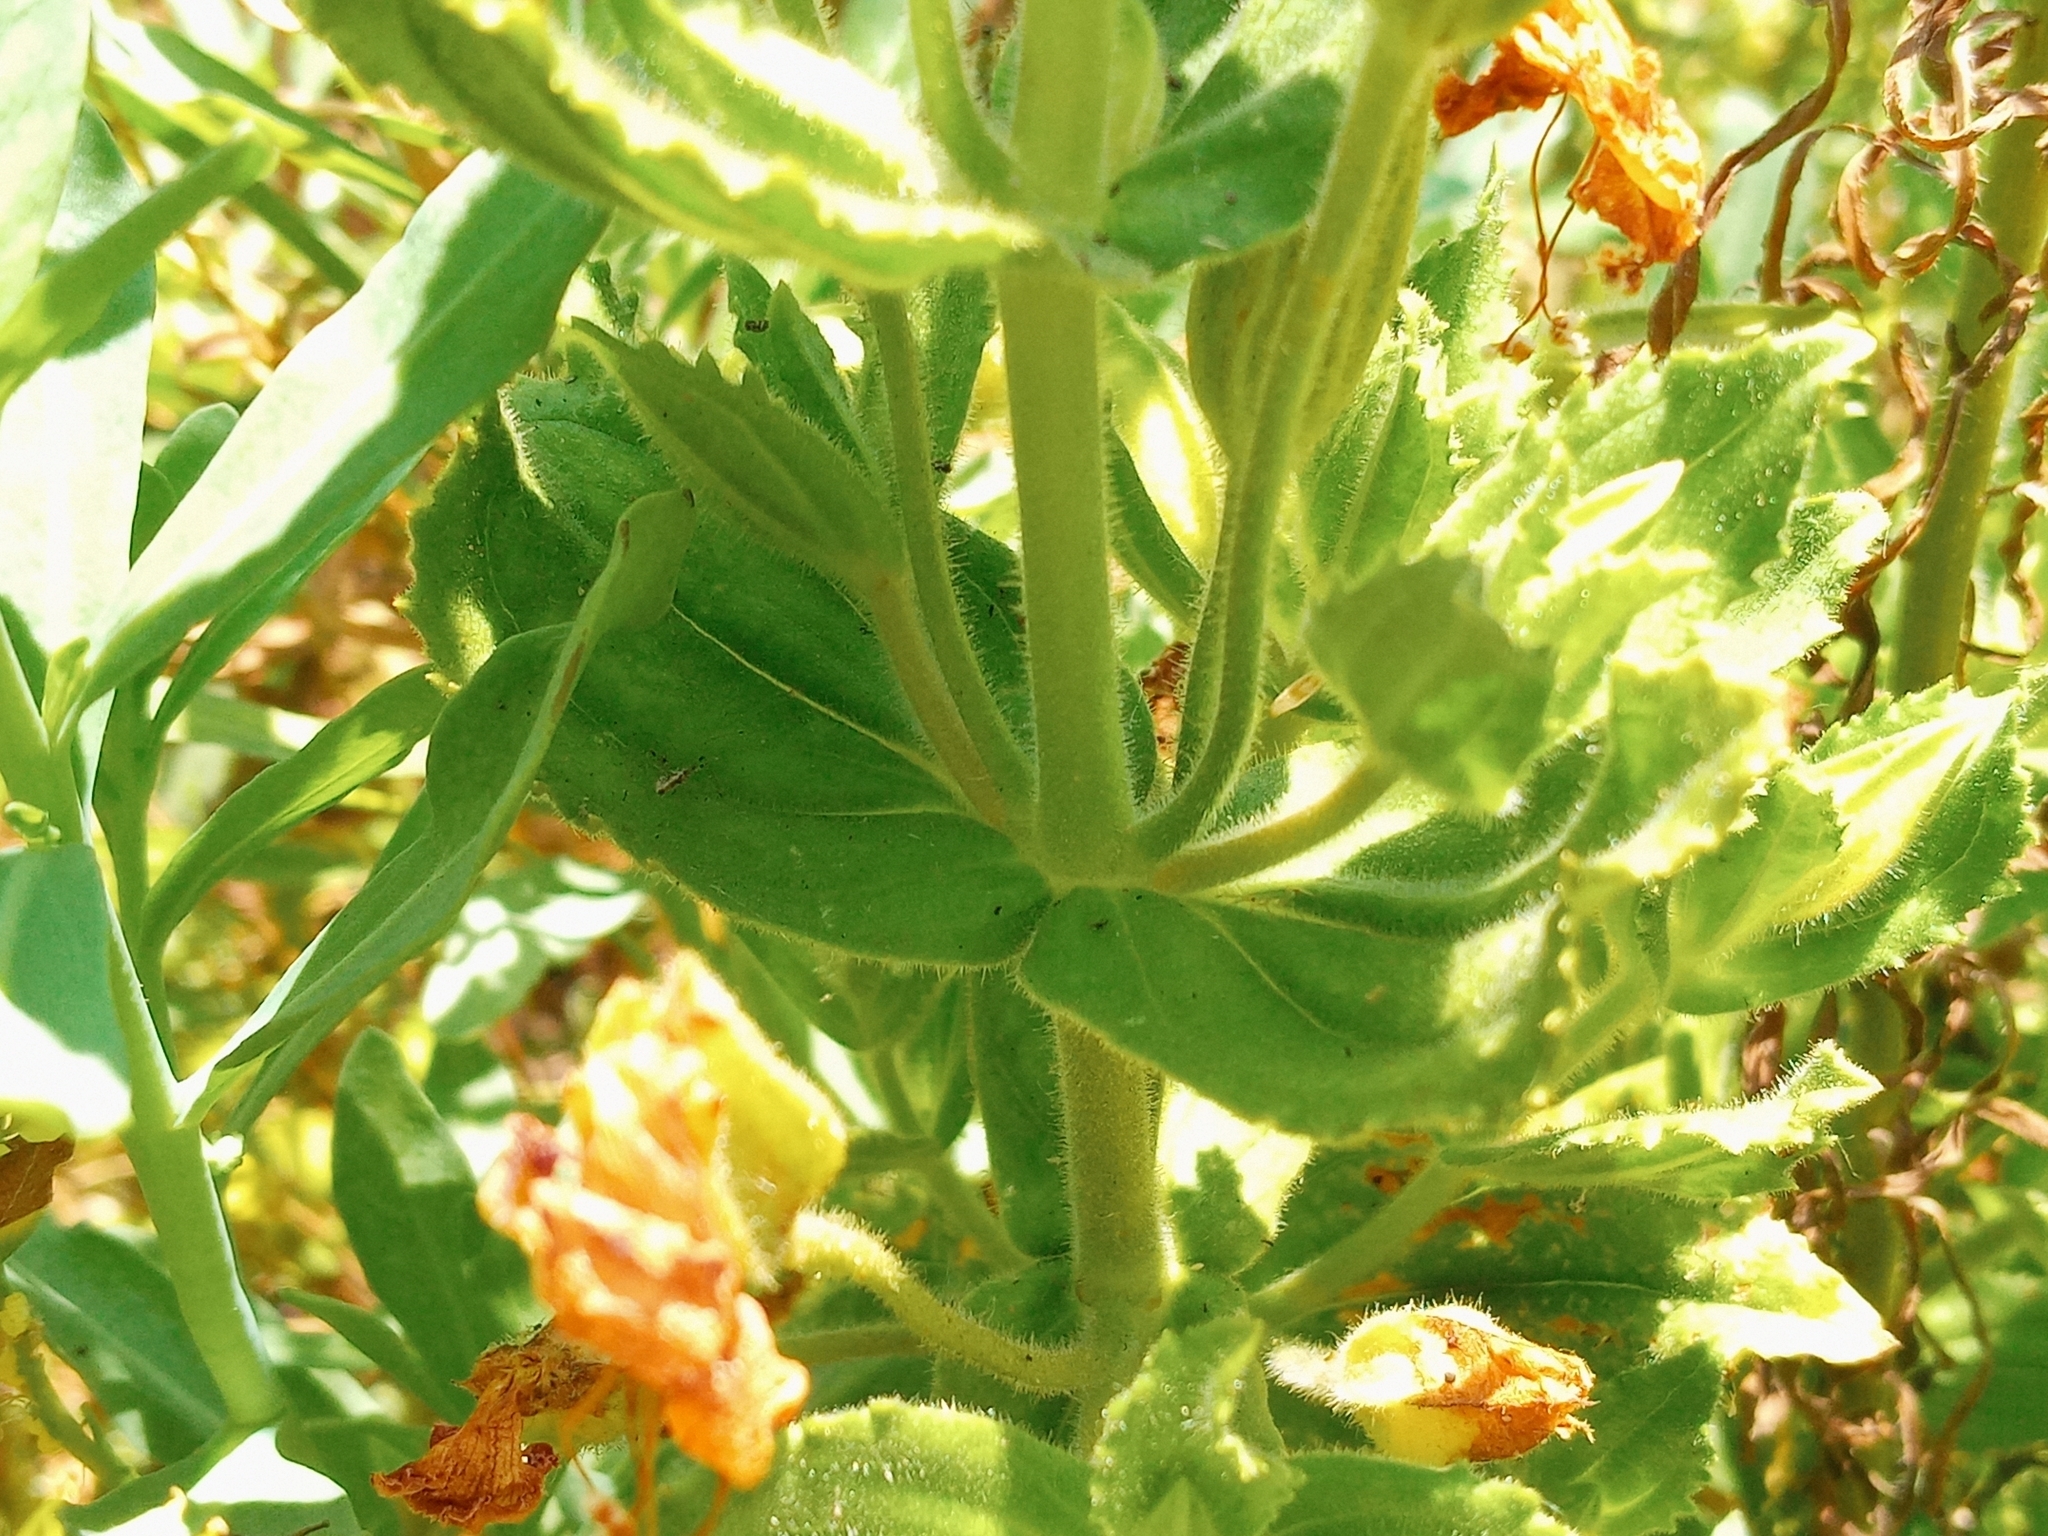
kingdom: Plantae
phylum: Tracheophyta
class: Magnoliopsida
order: Lamiales
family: Phrymaceae
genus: Erythranthe
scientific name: Erythranthe cardinalis
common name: Scarlet monkey-flower
